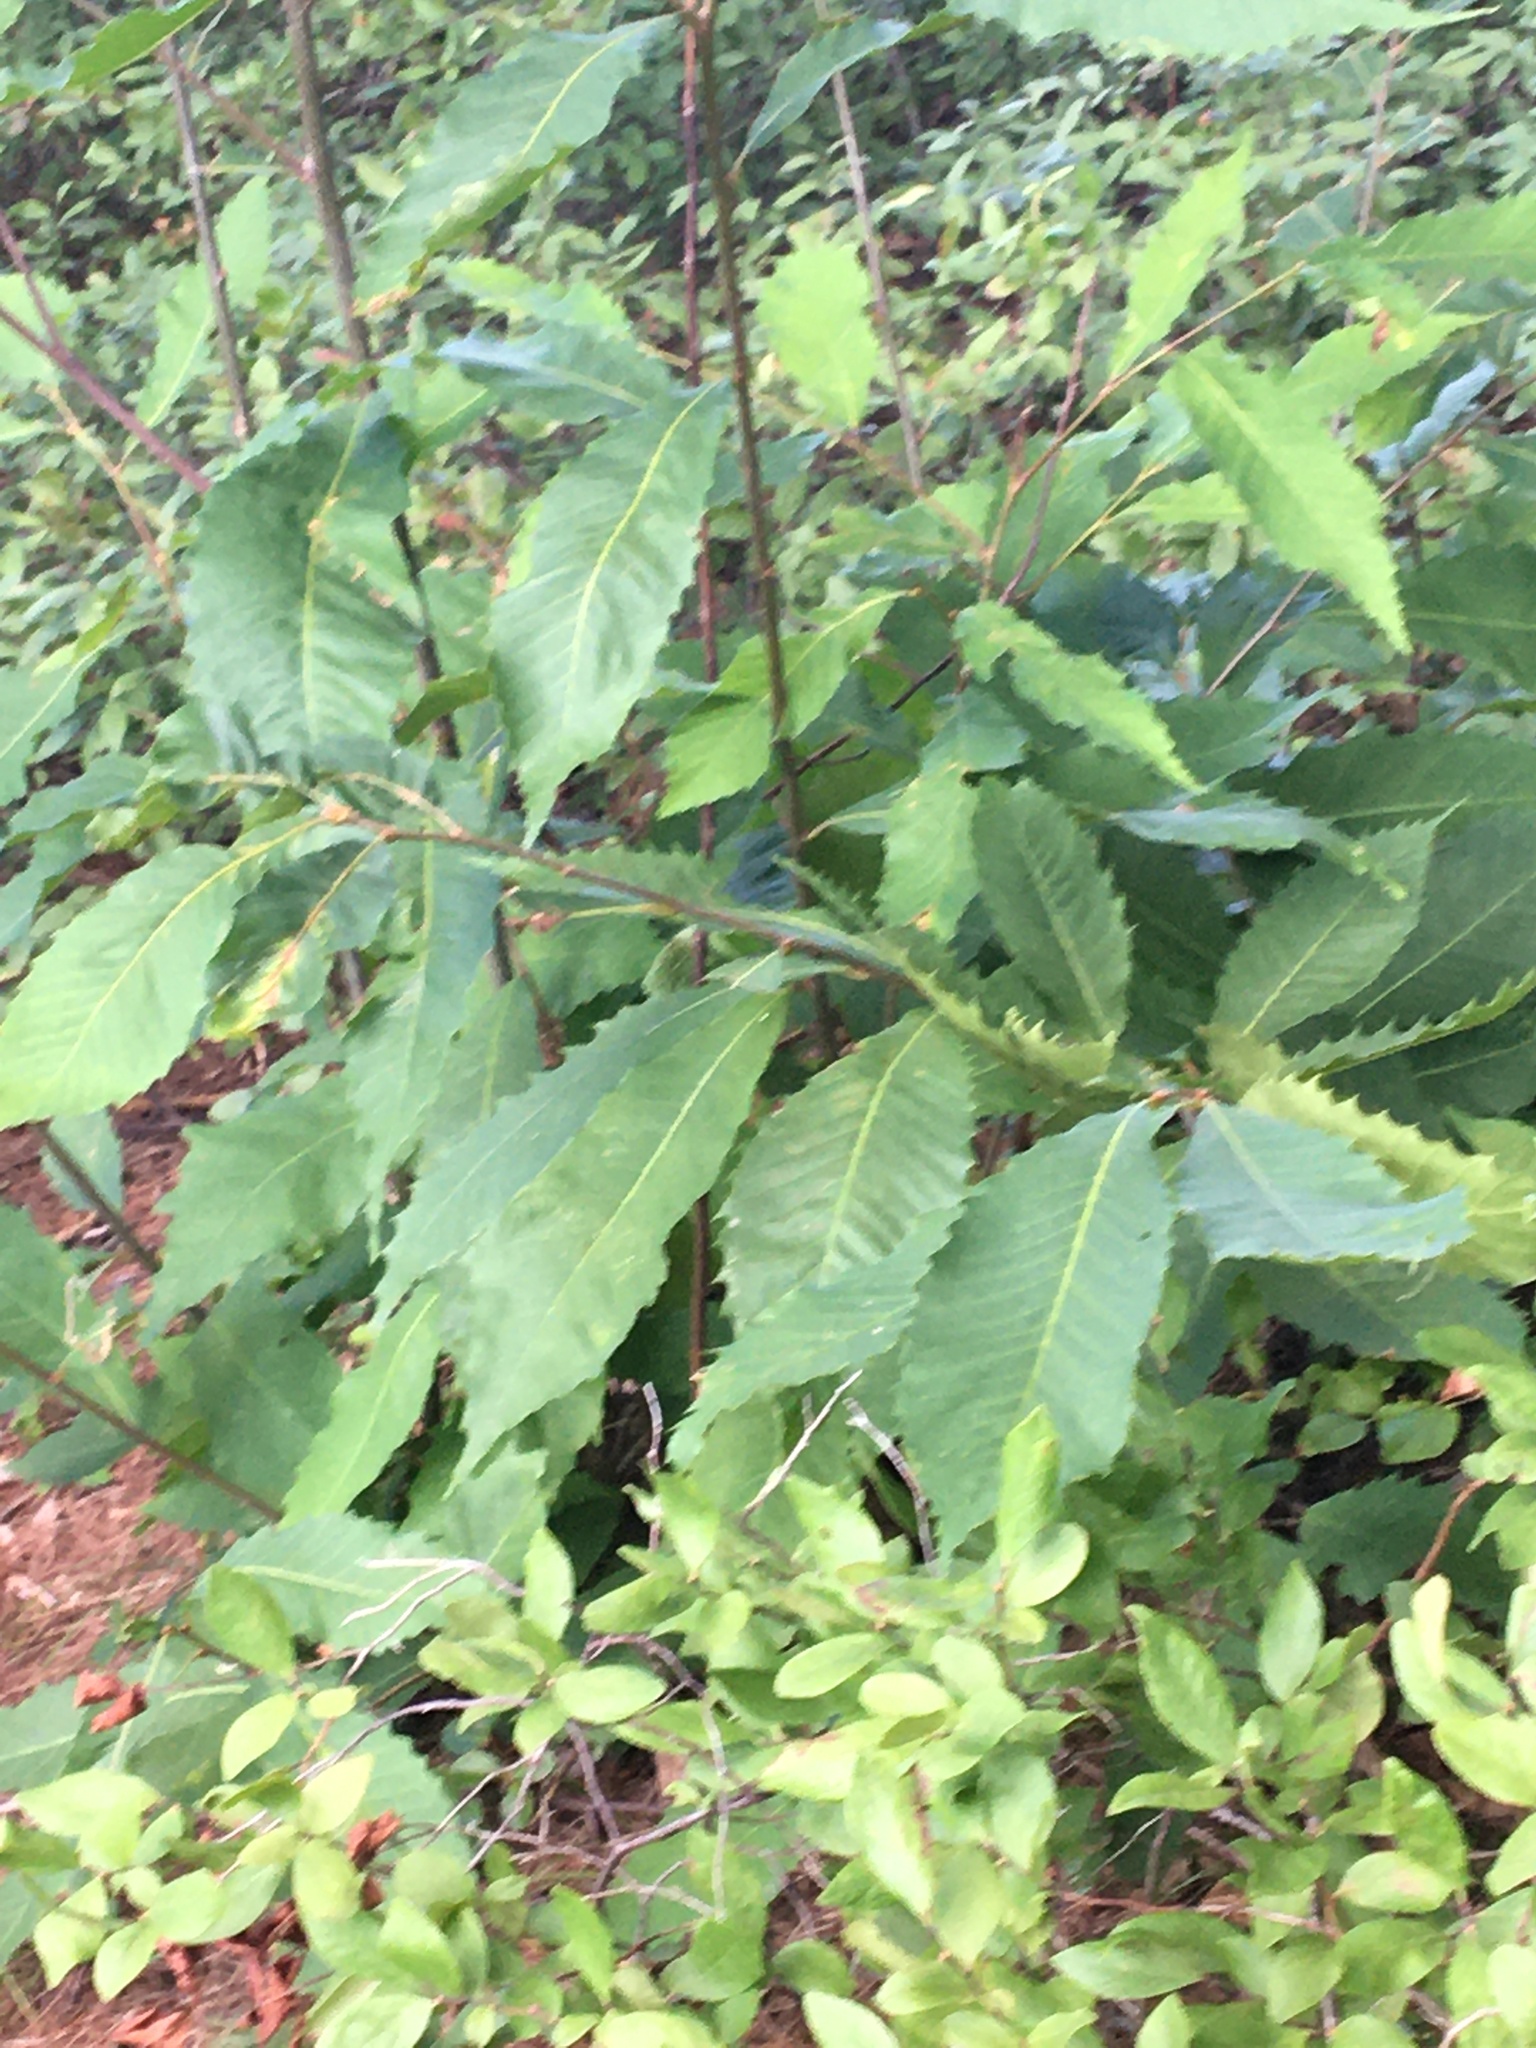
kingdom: Plantae
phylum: Tracheophyta
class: Magnoliopsida
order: Fagales
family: Fagaceae
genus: Castanea
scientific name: Castanea dentata
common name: American chestnut
